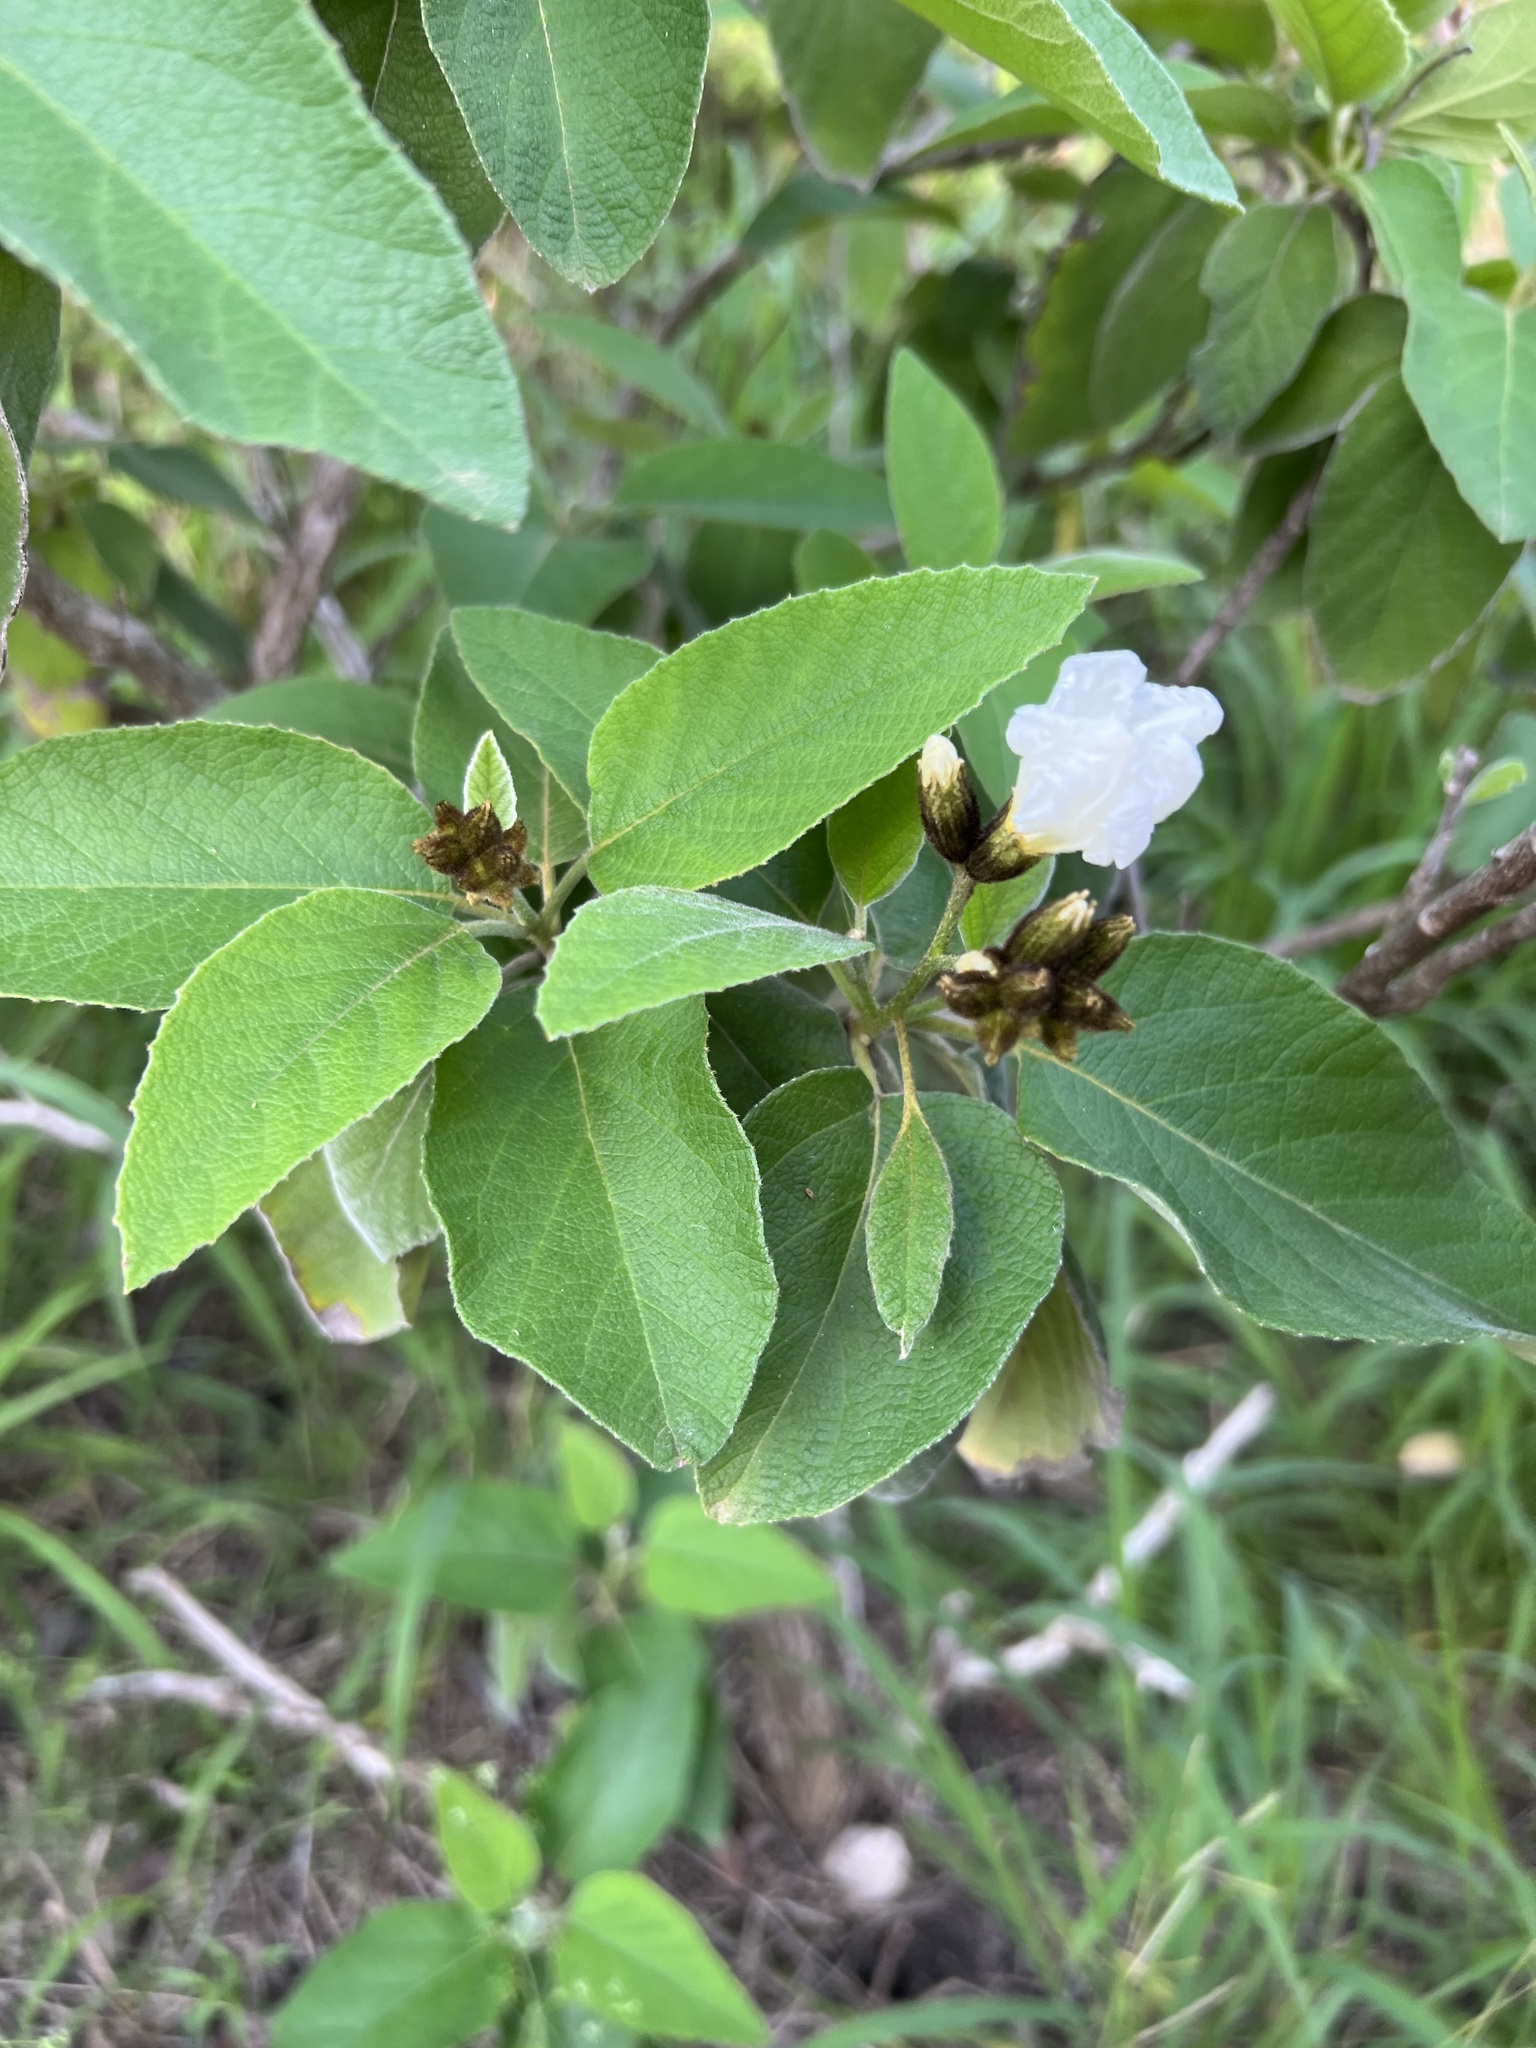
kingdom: Plantae
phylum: Tracheophyta
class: Magnoliopsida
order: Boraginales
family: Cordiaceae
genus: Cordia
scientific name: Cordia boissieri
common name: Mexican-olive
